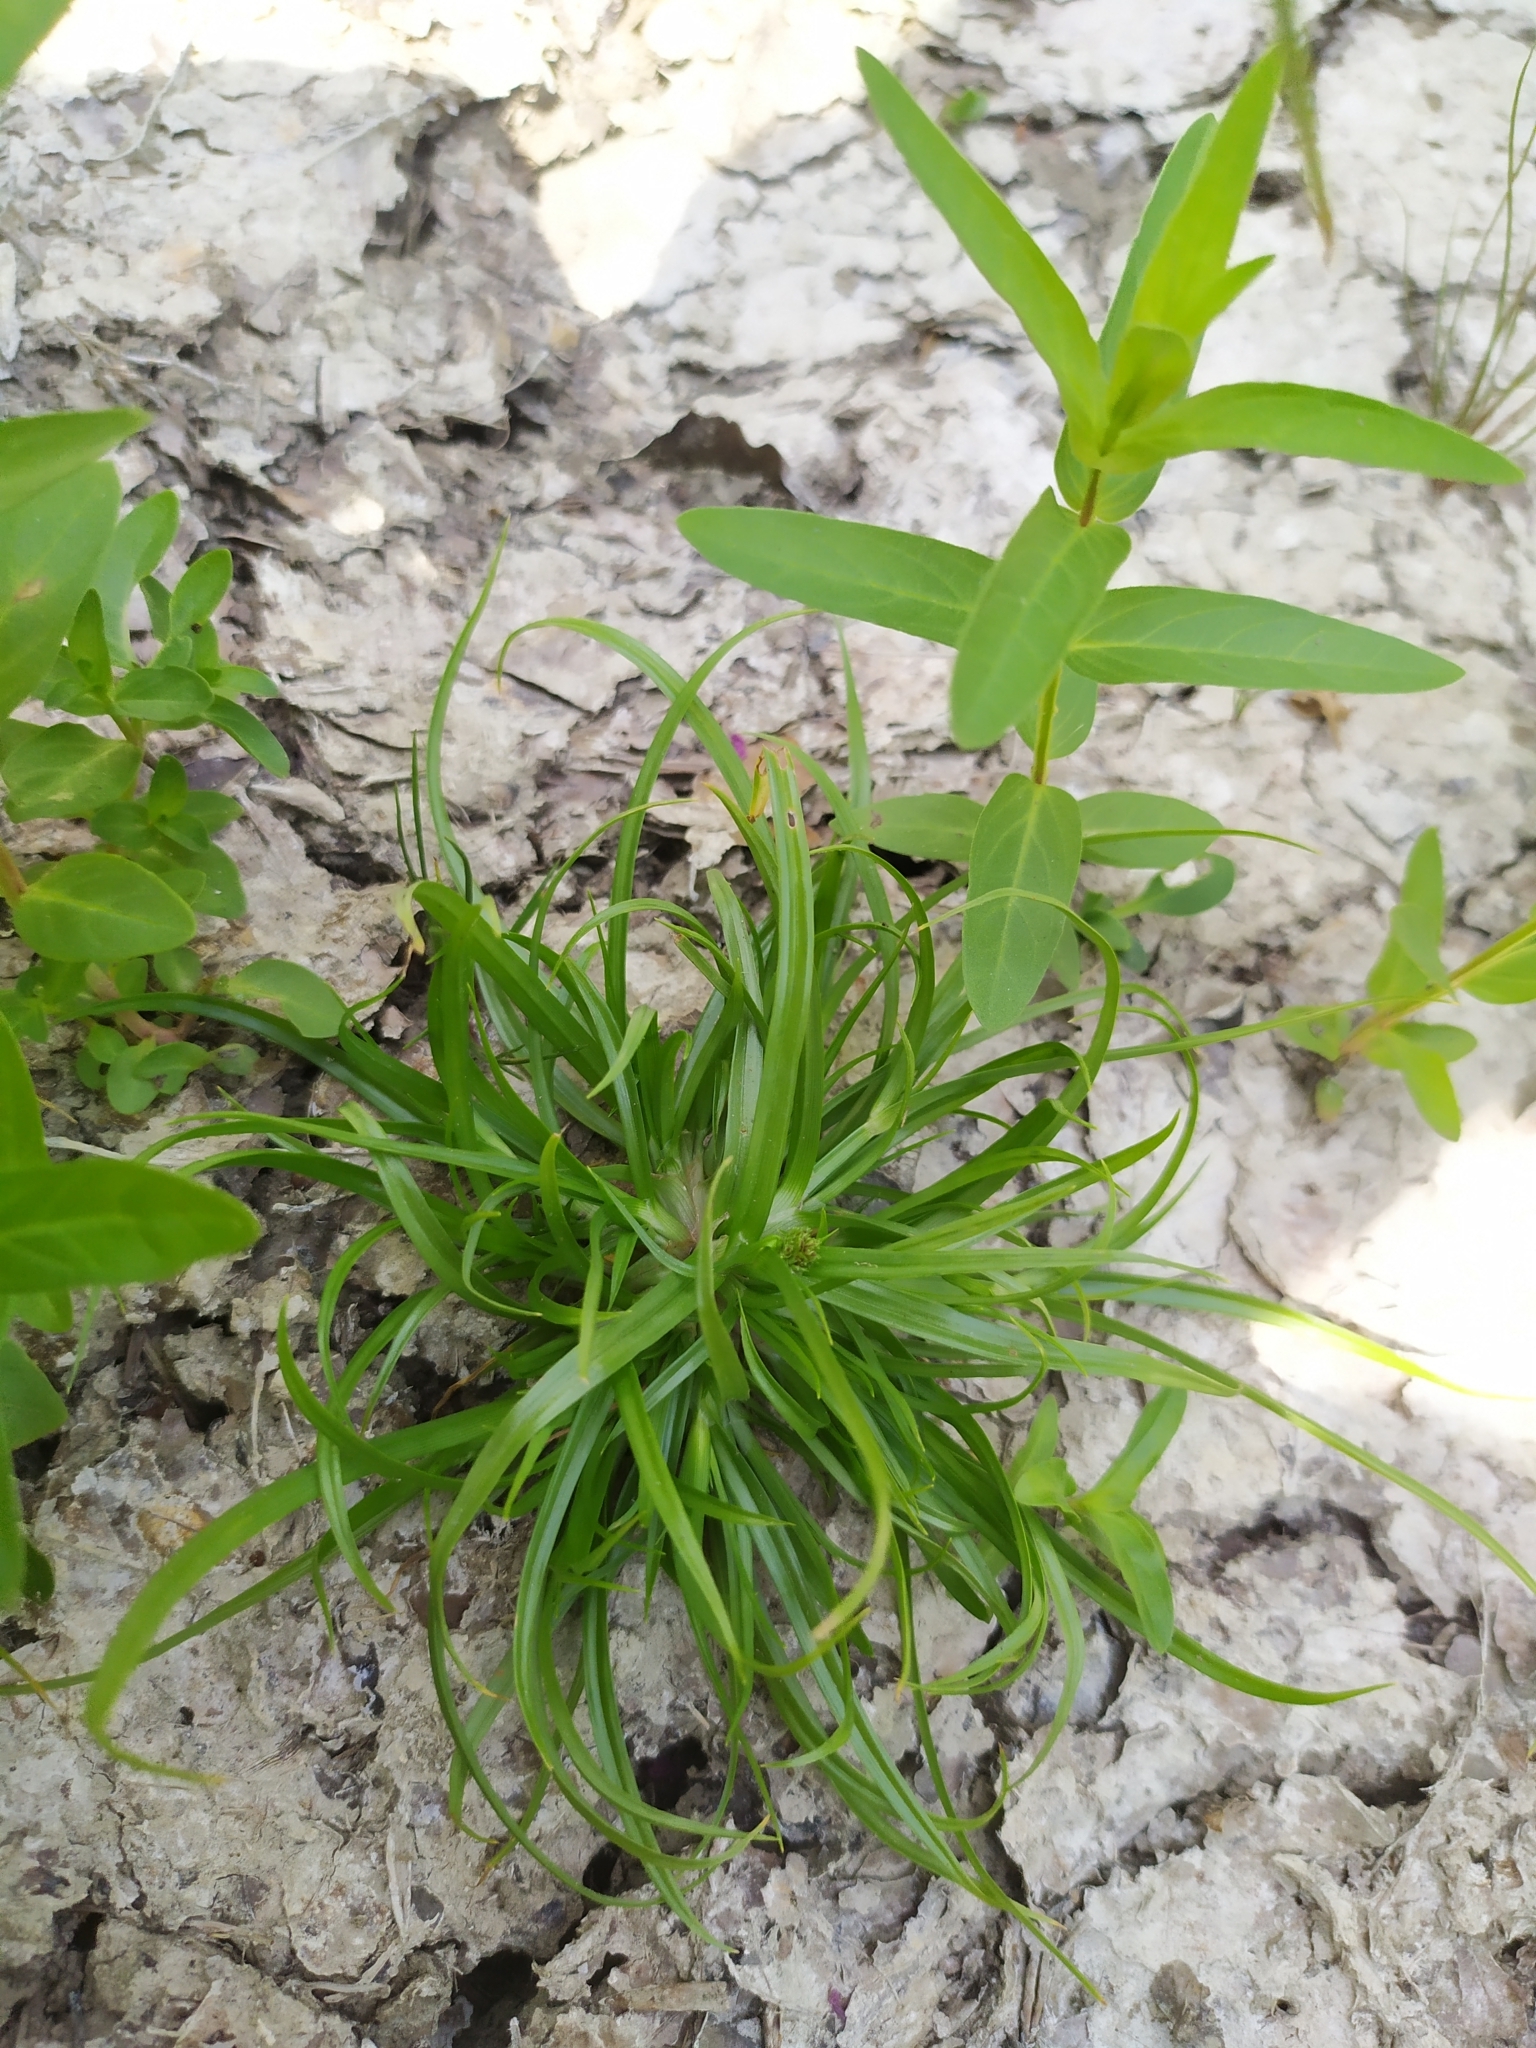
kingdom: Plantae
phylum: Tracheophyta
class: Liliopsida
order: Poales
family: Cyperaceae
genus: Cyperus
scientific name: Cyperus fuscus
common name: Brown galingale
